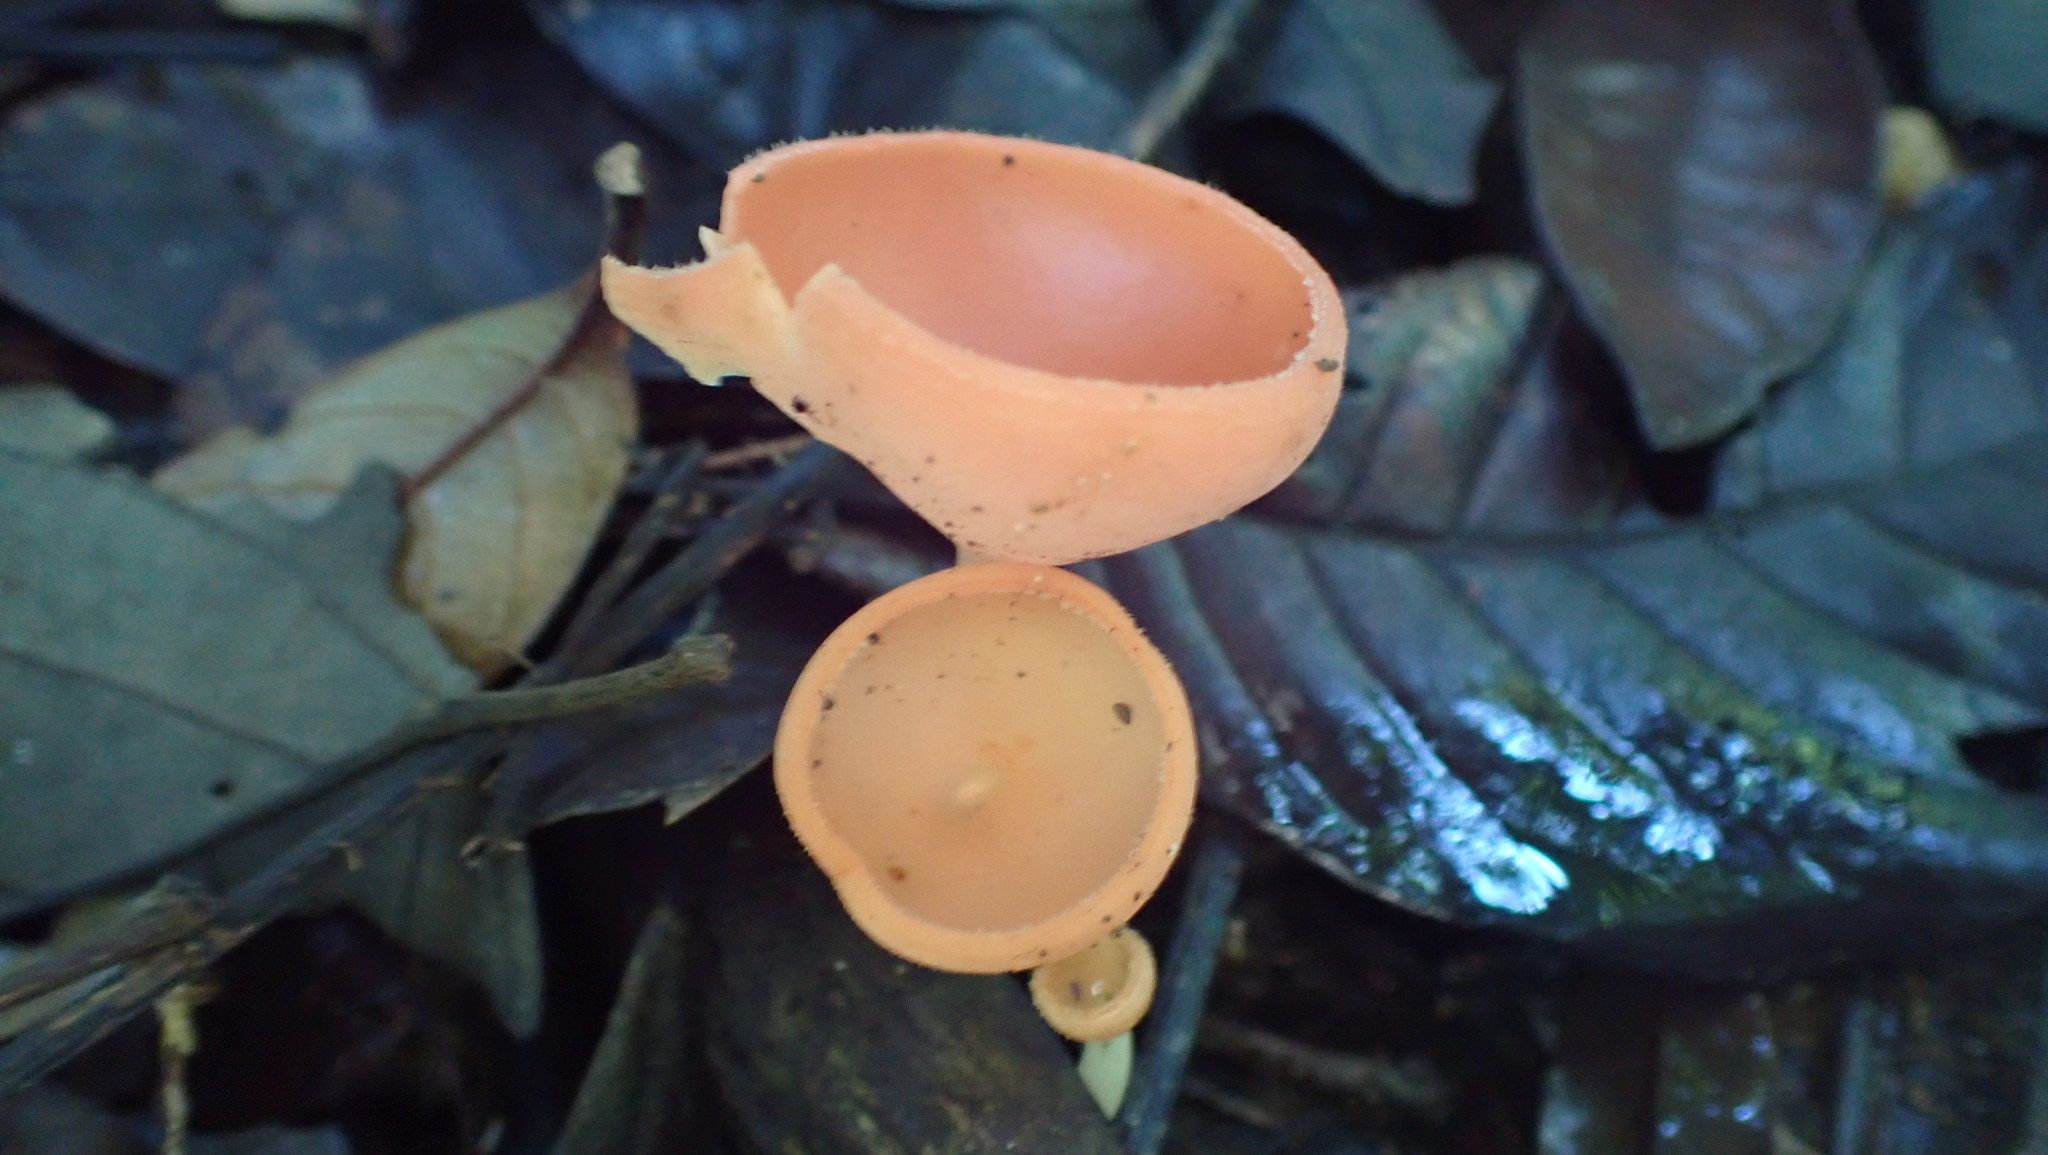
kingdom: Fungi
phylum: Ascomycota
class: Pezizomycetes
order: Pezizales
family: Sarcoscyphaceae
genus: Cookeina
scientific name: Cookeina speciosa
